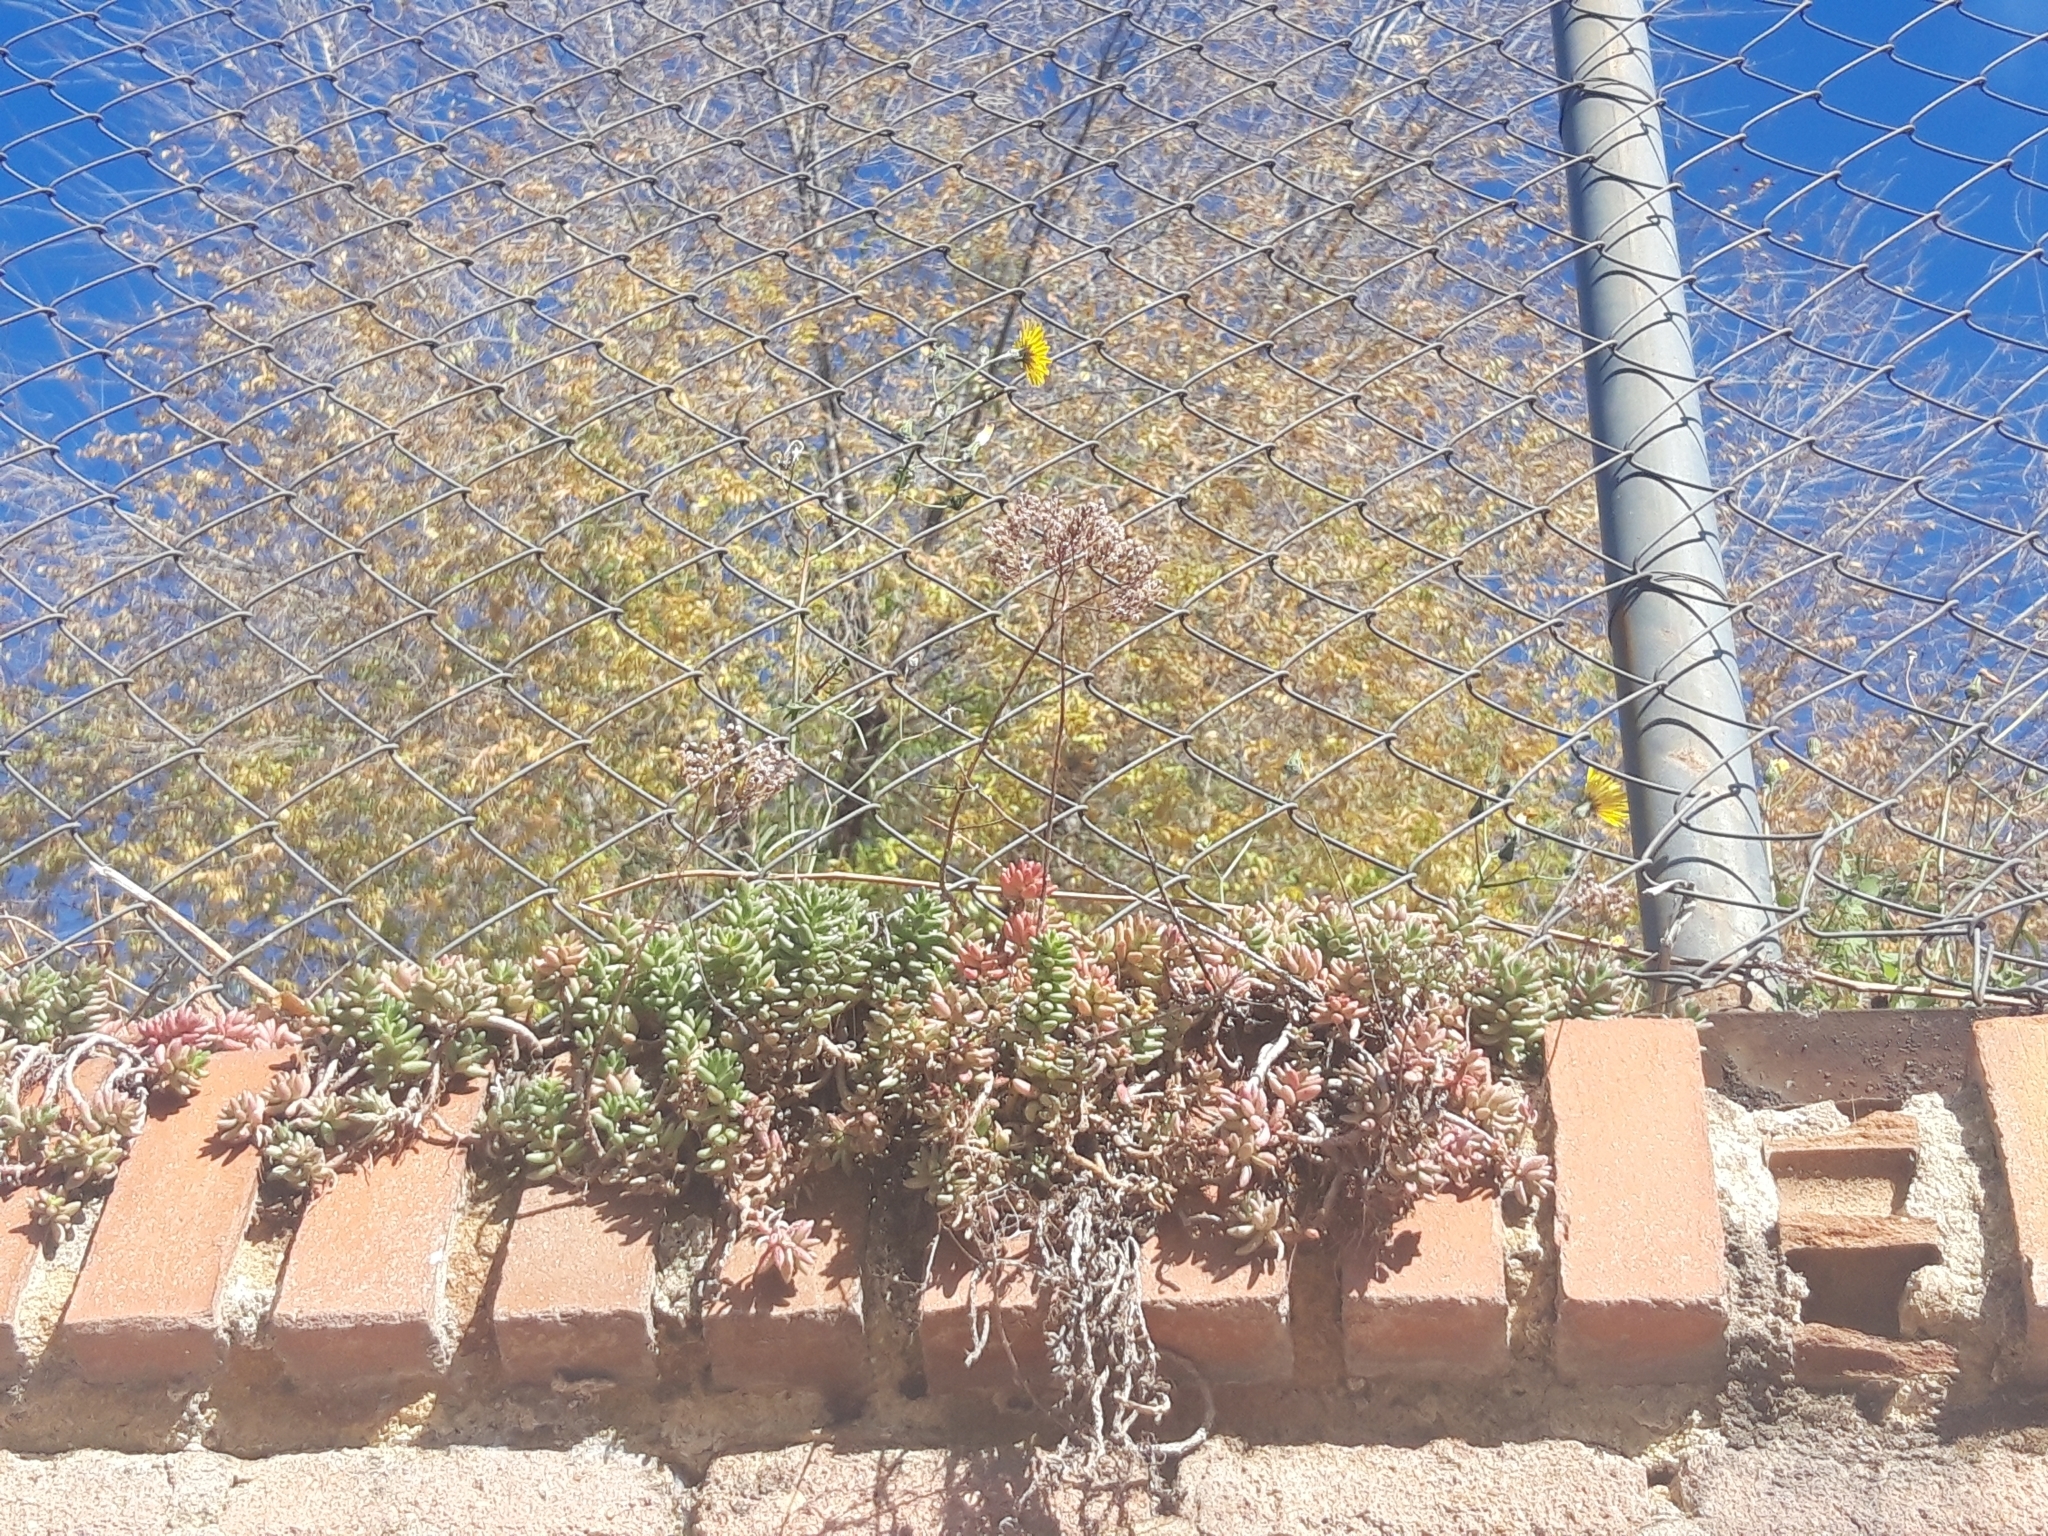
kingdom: Plantae
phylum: Tracheophyta
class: Magnoliopsida
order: Saxifragales
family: Crassulaceae
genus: Sedum
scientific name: Sedum album
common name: White stonecrop
